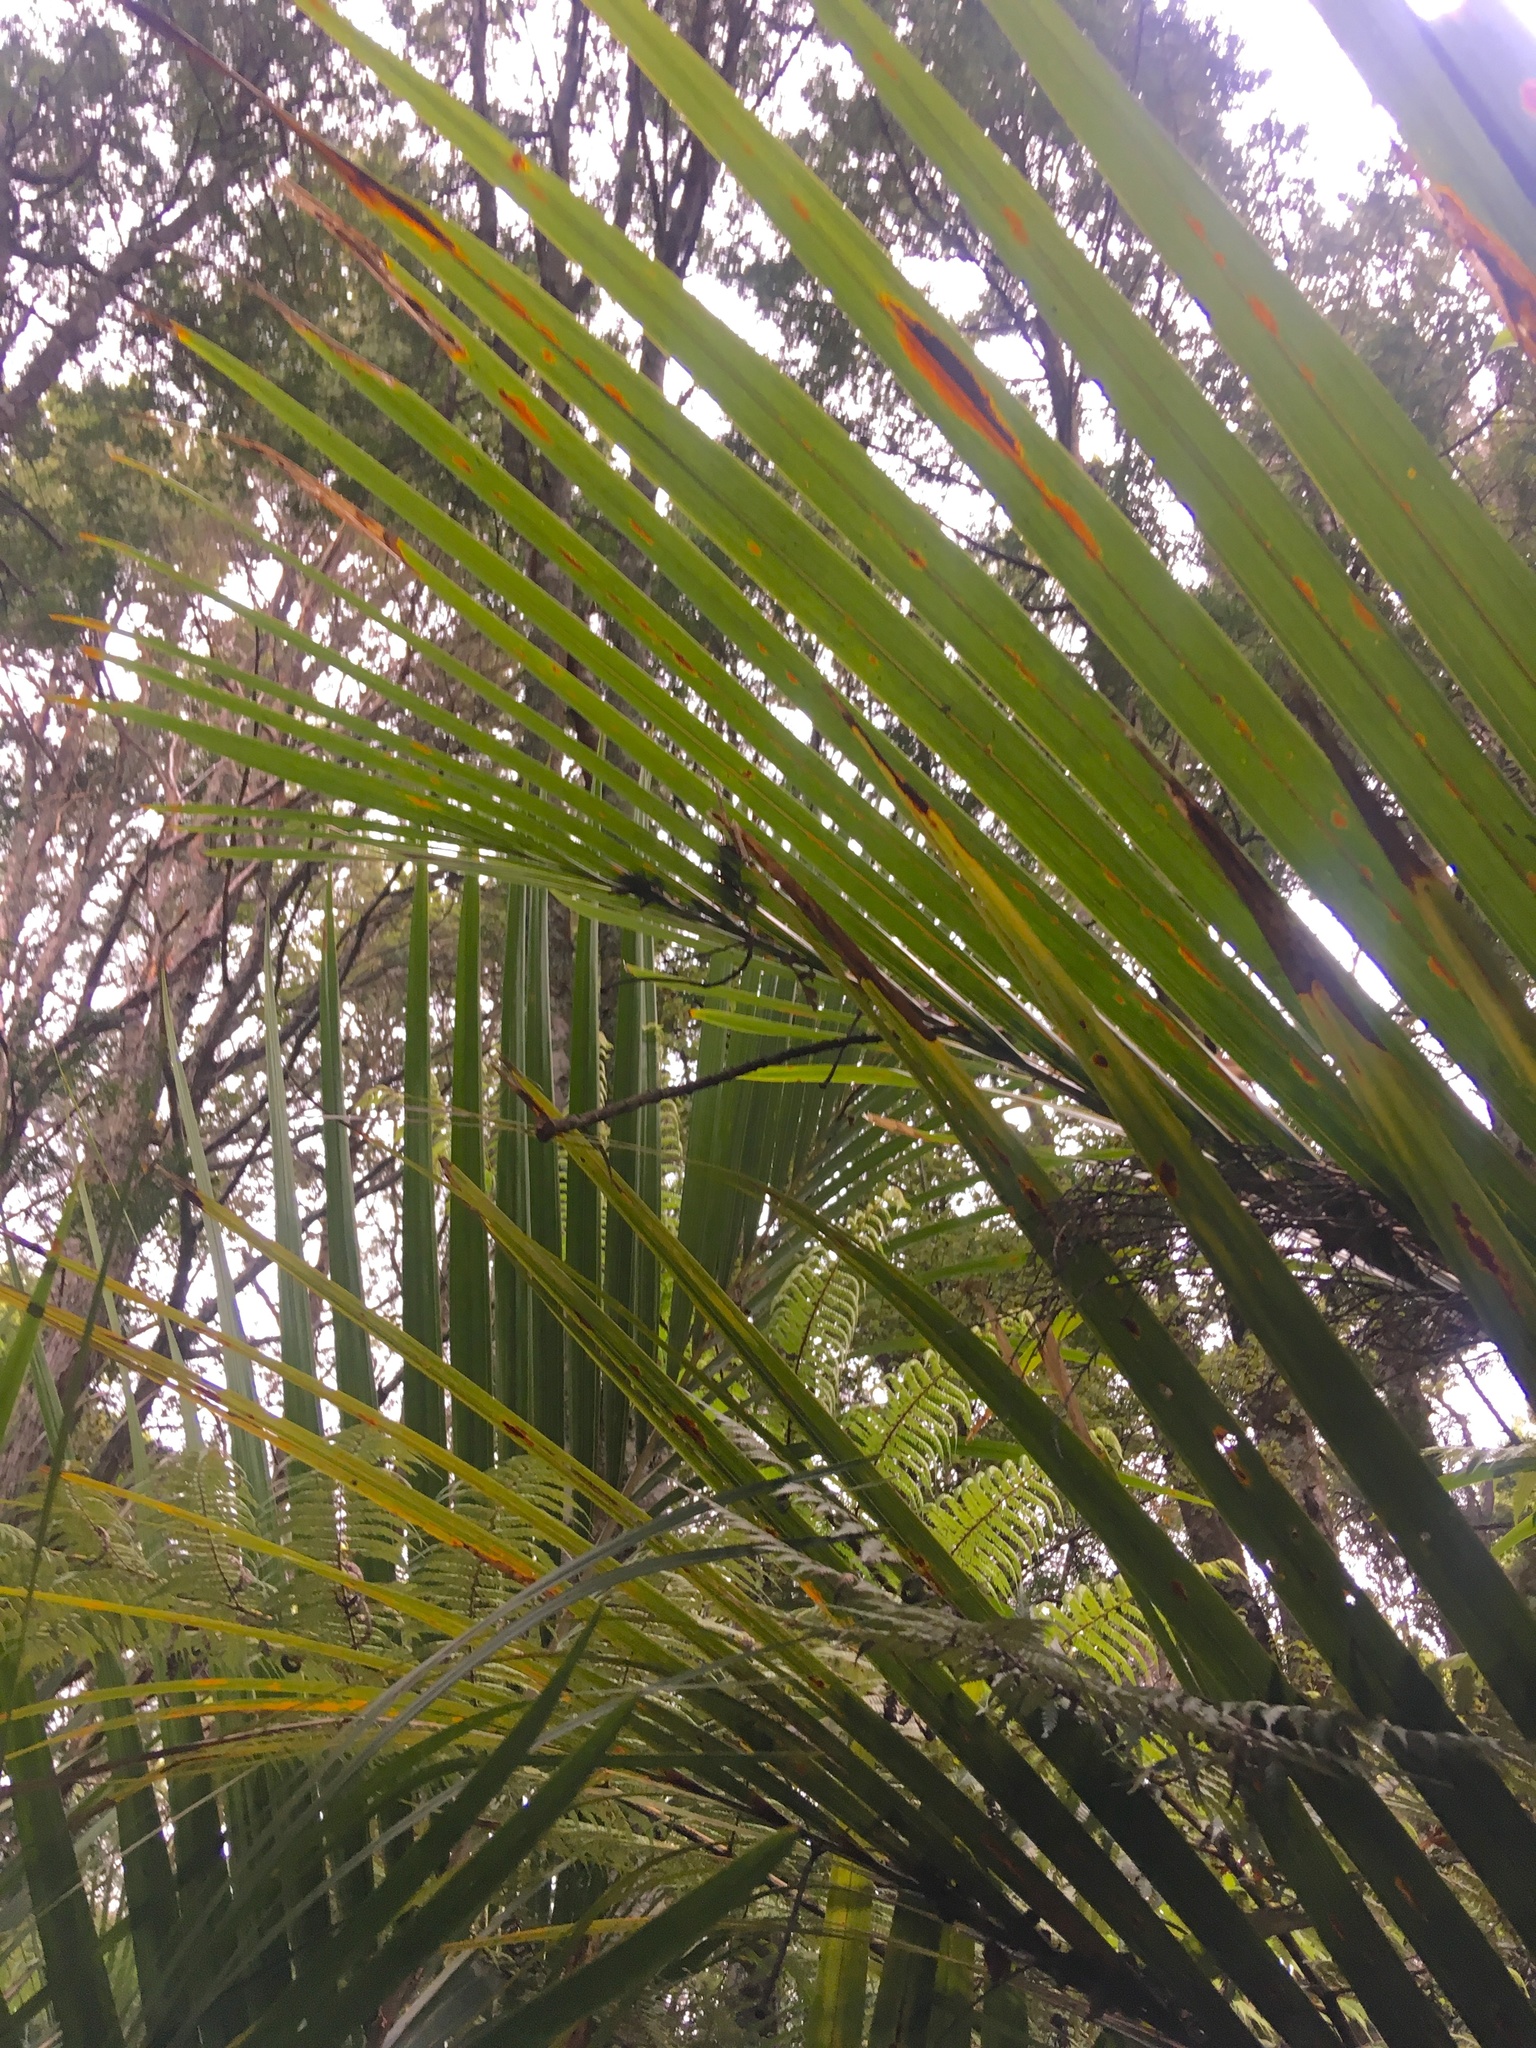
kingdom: Plantae
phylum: Tracheophyta
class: Liliopsida
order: Arecales
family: Arecaceae
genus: Rhopalostylis
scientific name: Rhopalostylis sapida
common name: Feather-duster palm
